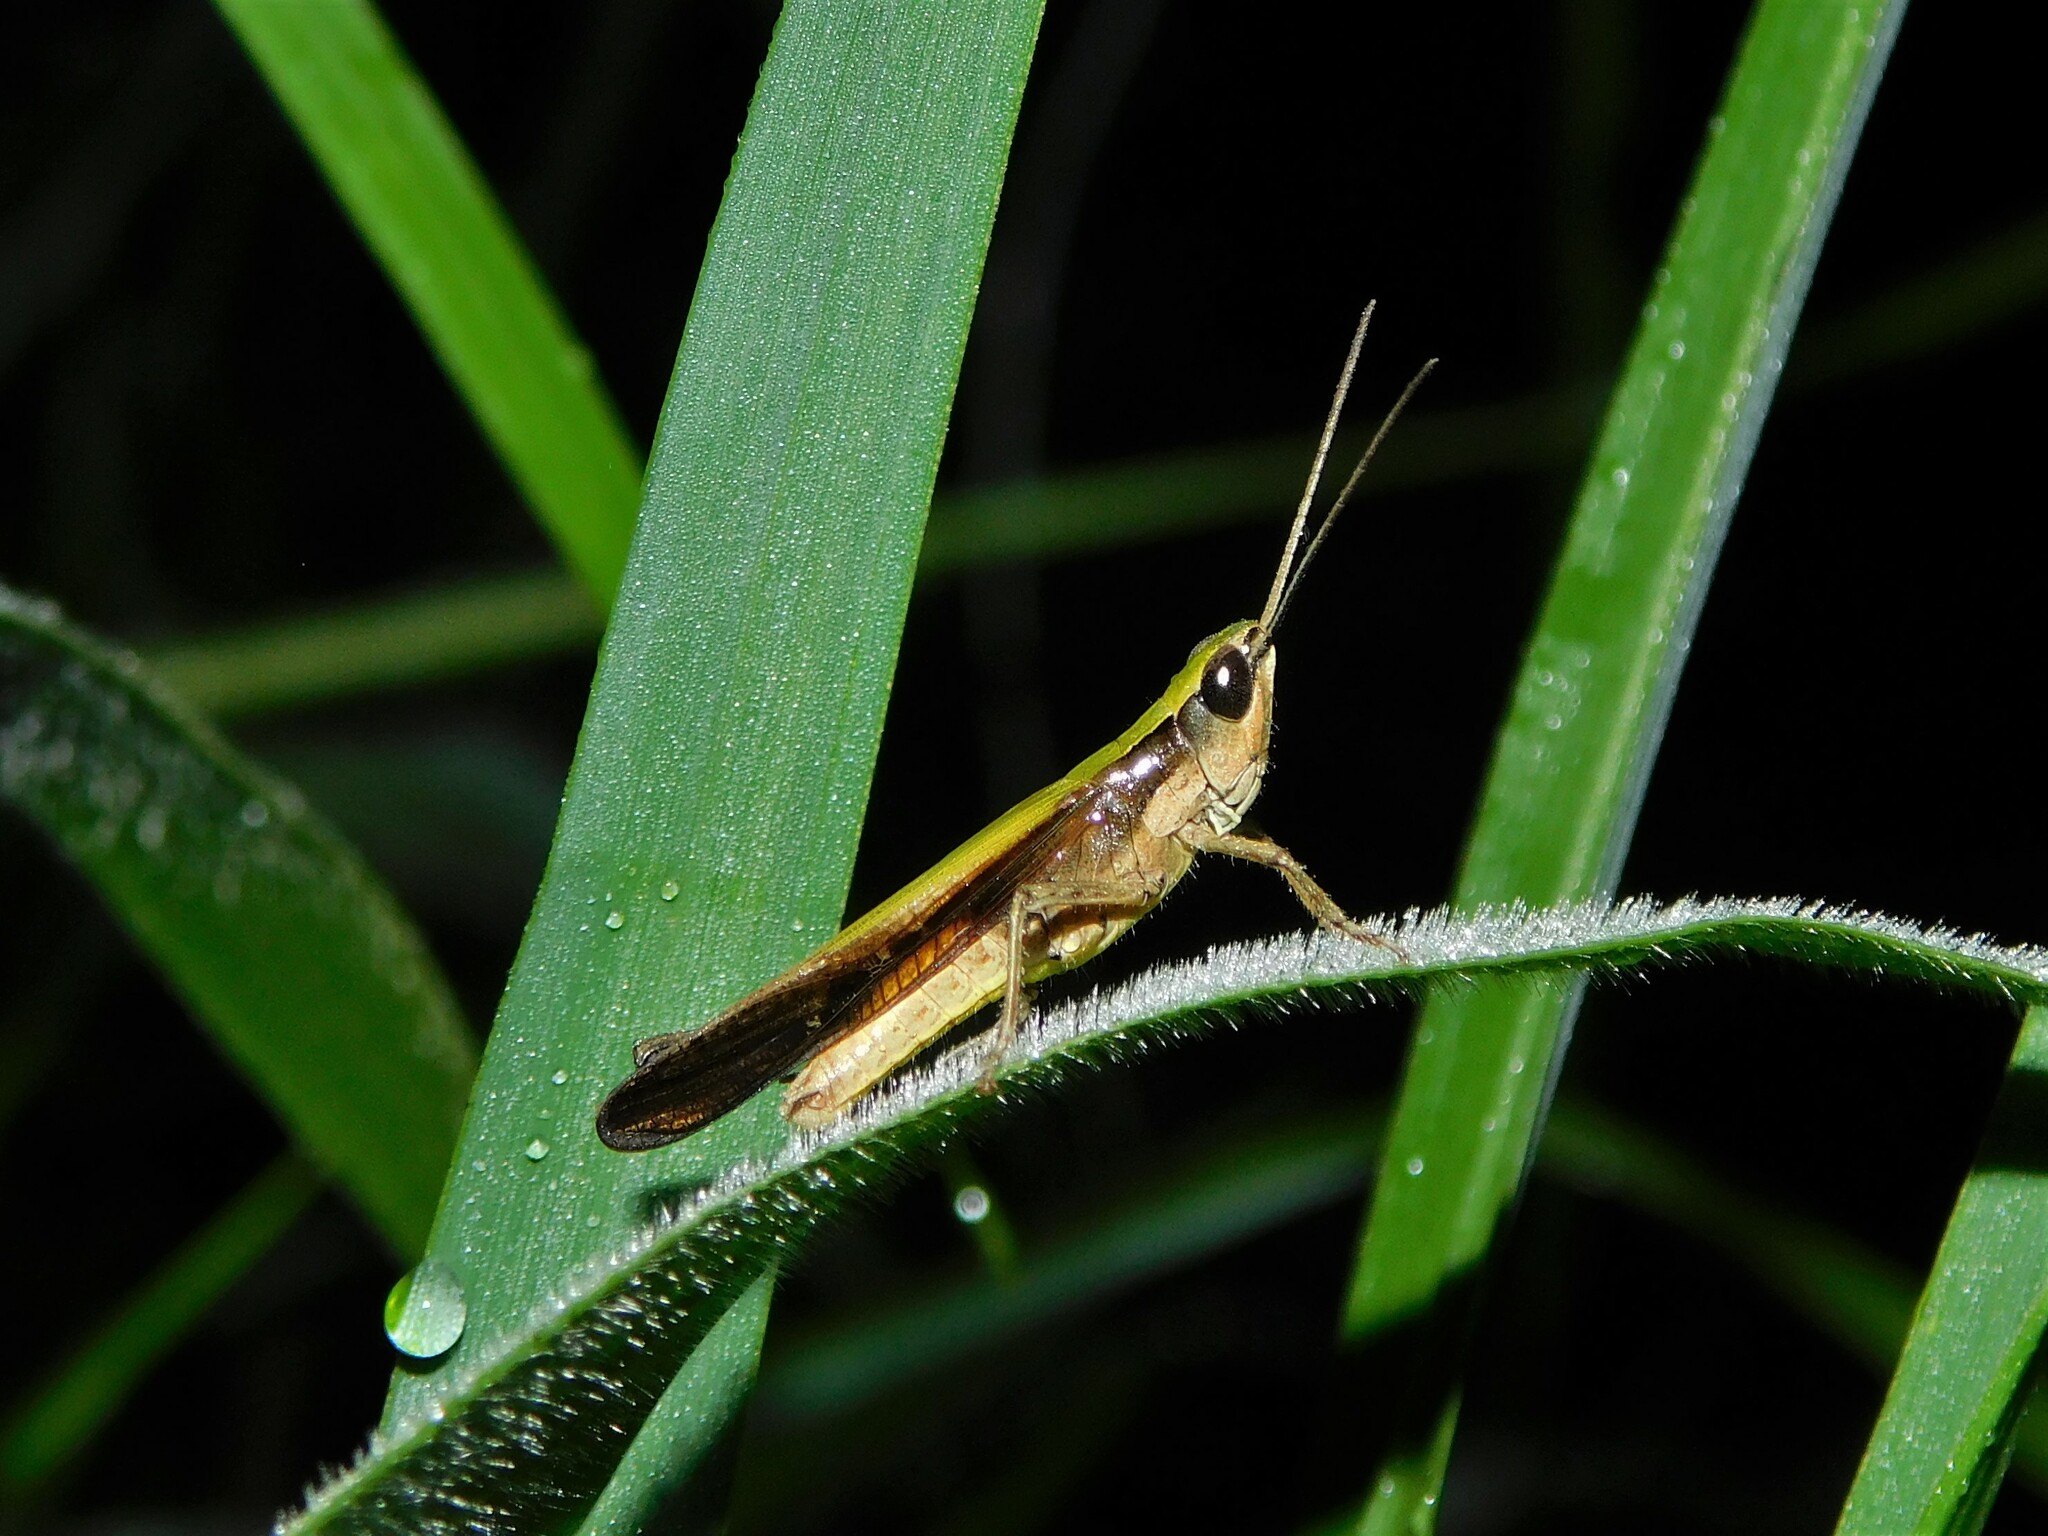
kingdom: Animalia
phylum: Arthropoda
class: Insecta
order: Orthoptera
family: Acrididae
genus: Coryphosima
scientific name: Coryphosima stenoptera
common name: African common grasshopper
